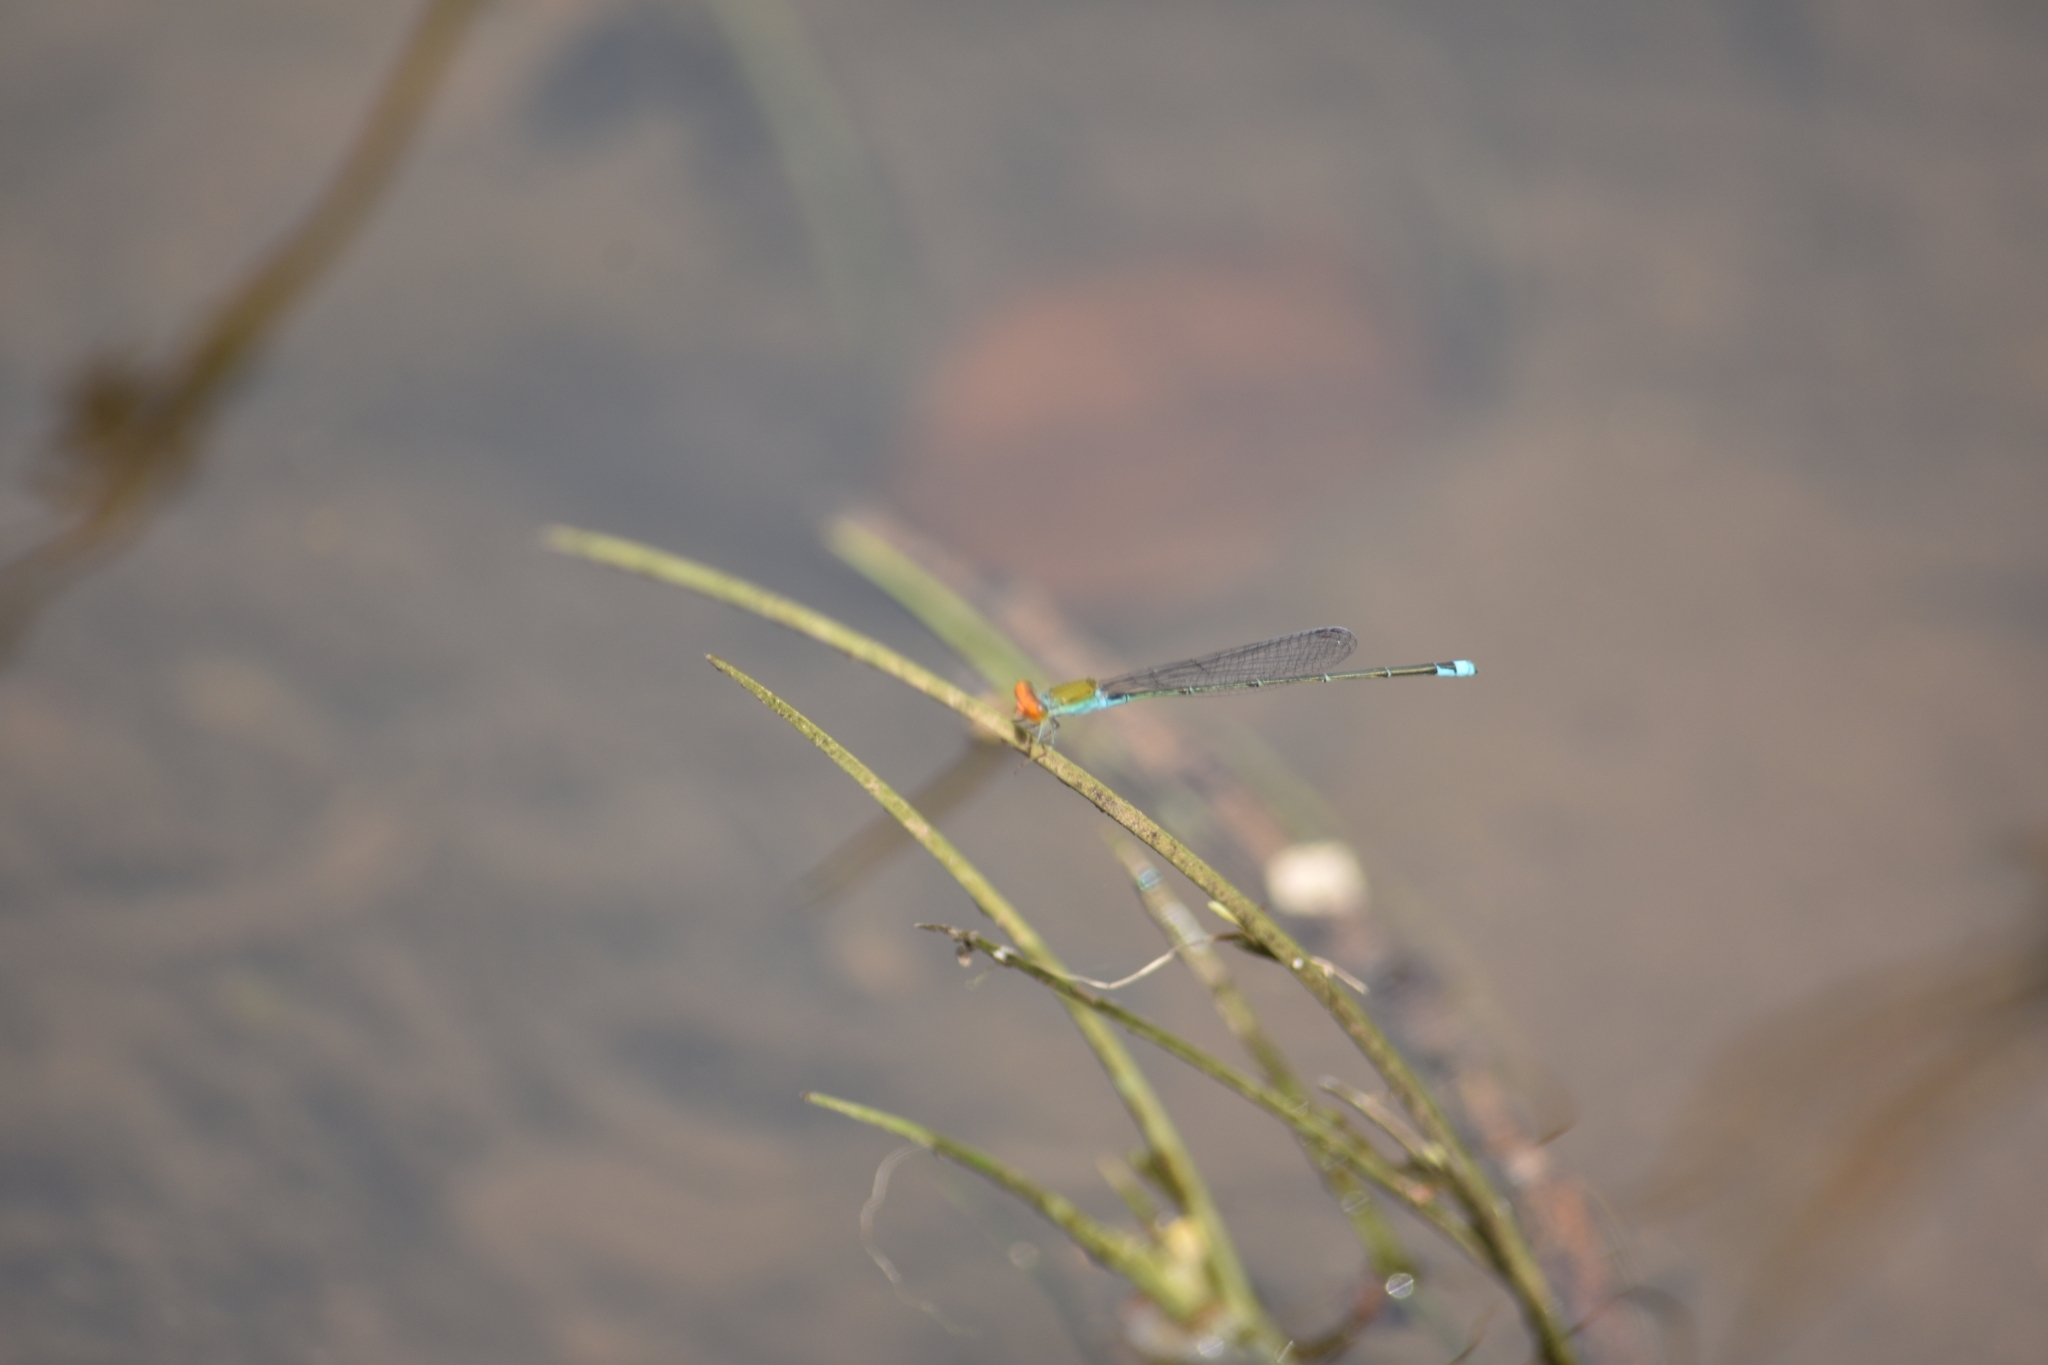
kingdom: Animalia
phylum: Arthropoda
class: Insecta
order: Odonata
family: Coenagrionidae
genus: Pseudagrion
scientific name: Pseudagrion rubriceps
